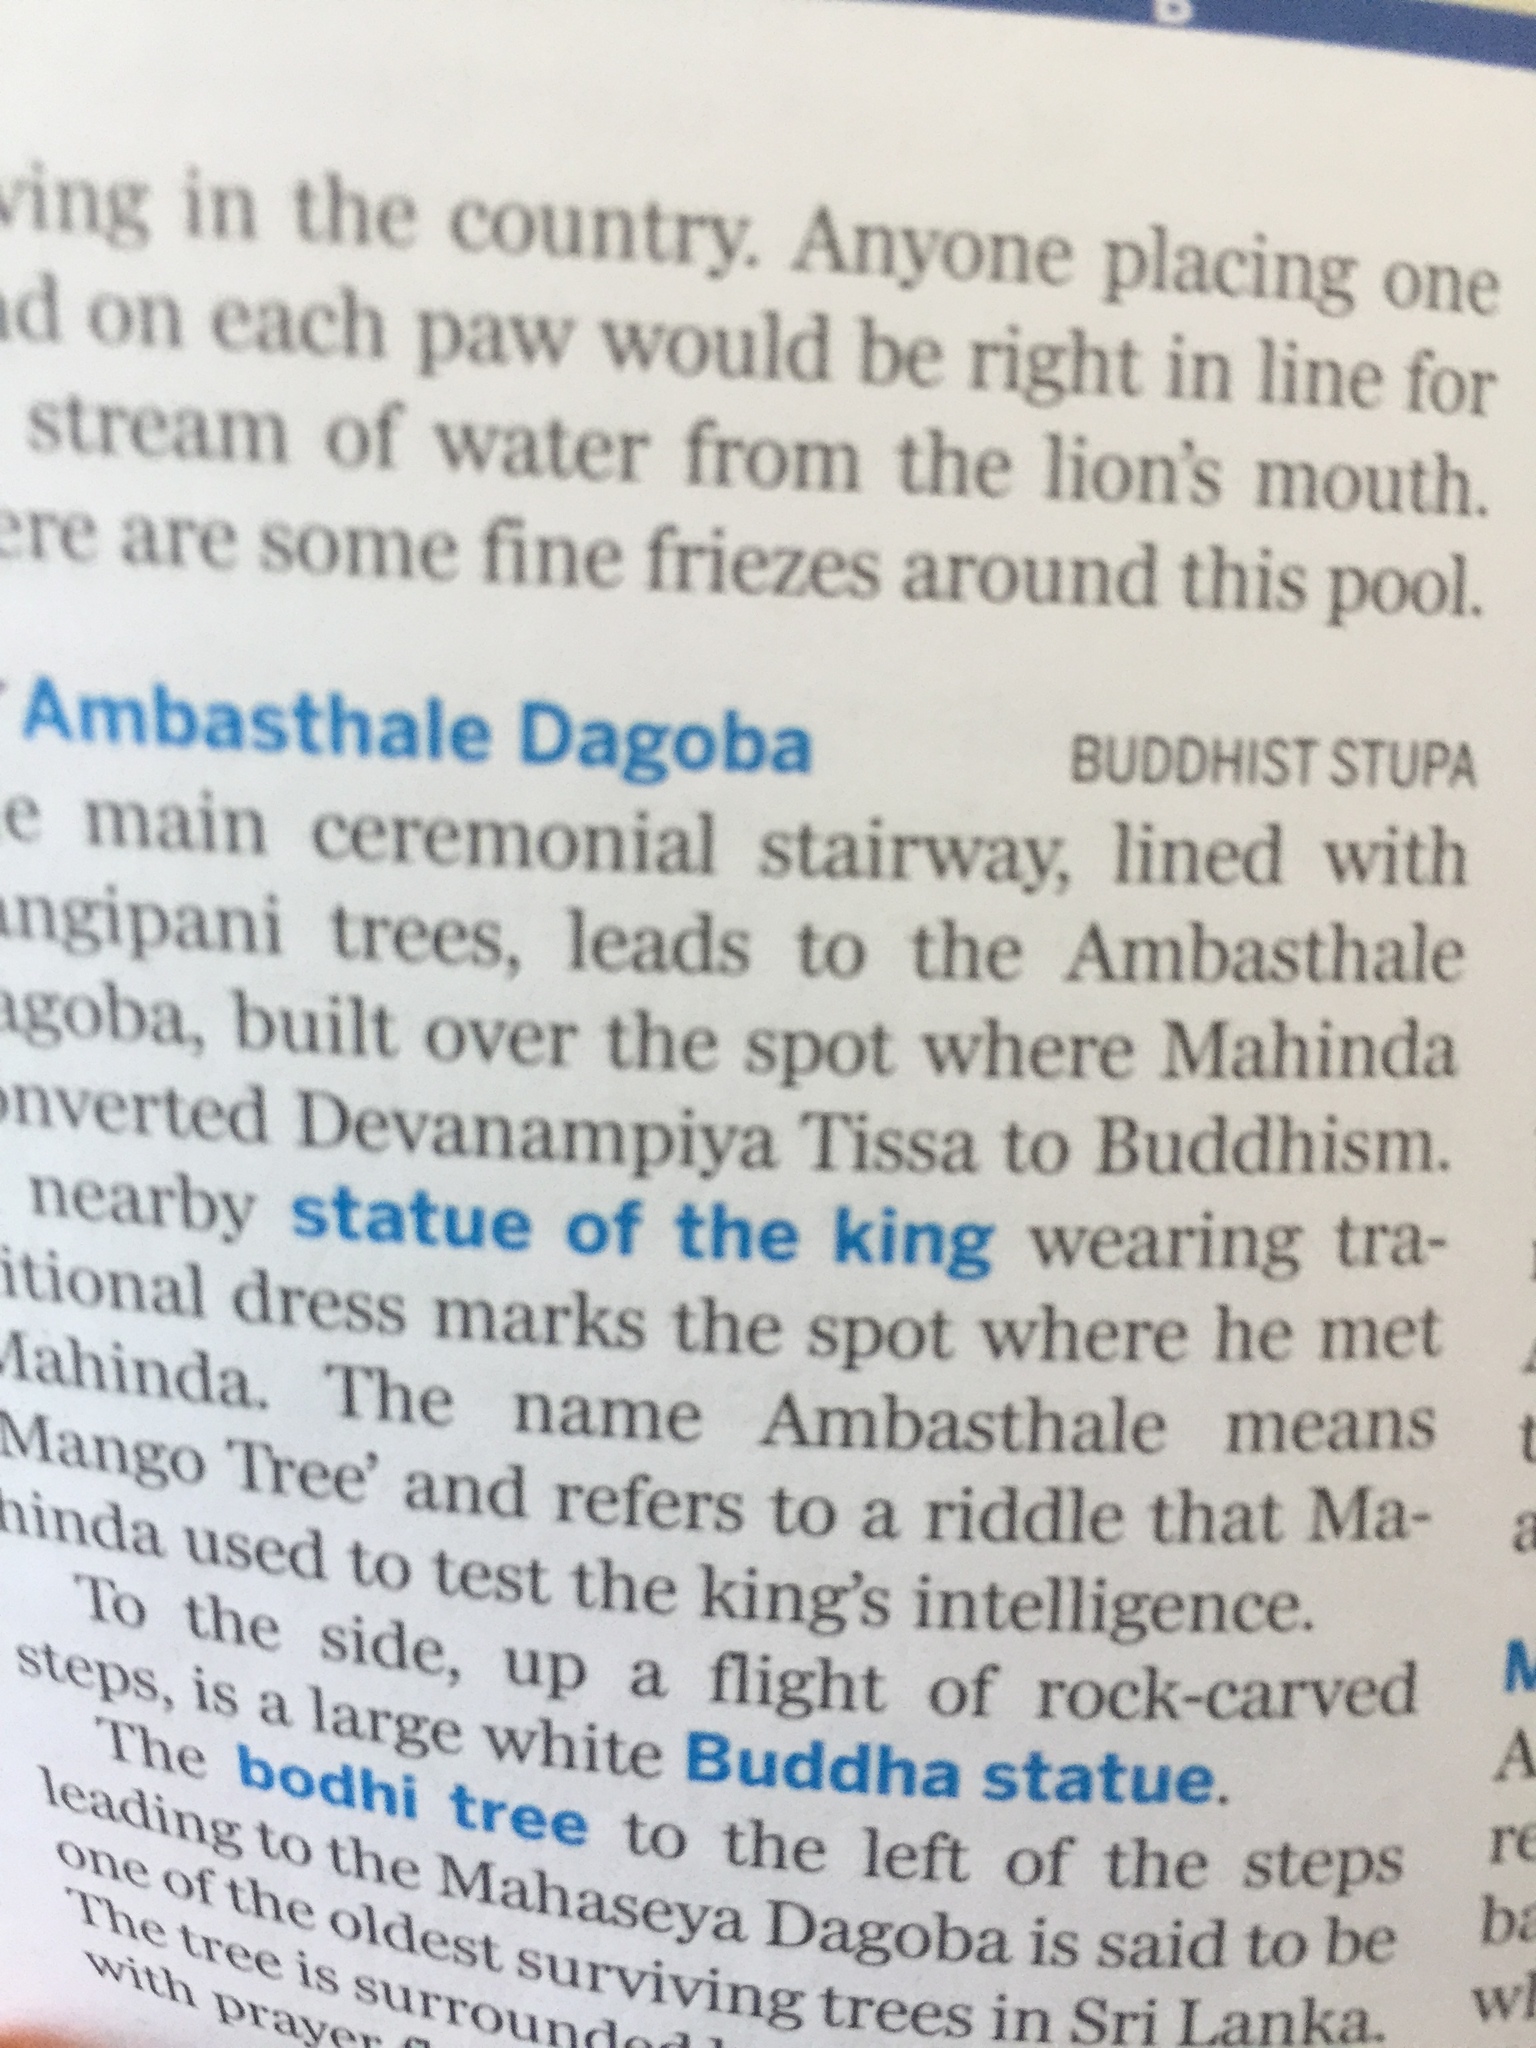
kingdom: Plantae
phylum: Tracheophyta
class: Magnoliopsida
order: Gentianales
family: Apocynaceae
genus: Plumeria
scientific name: Plumeria rubra
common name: Pagoda-tree
